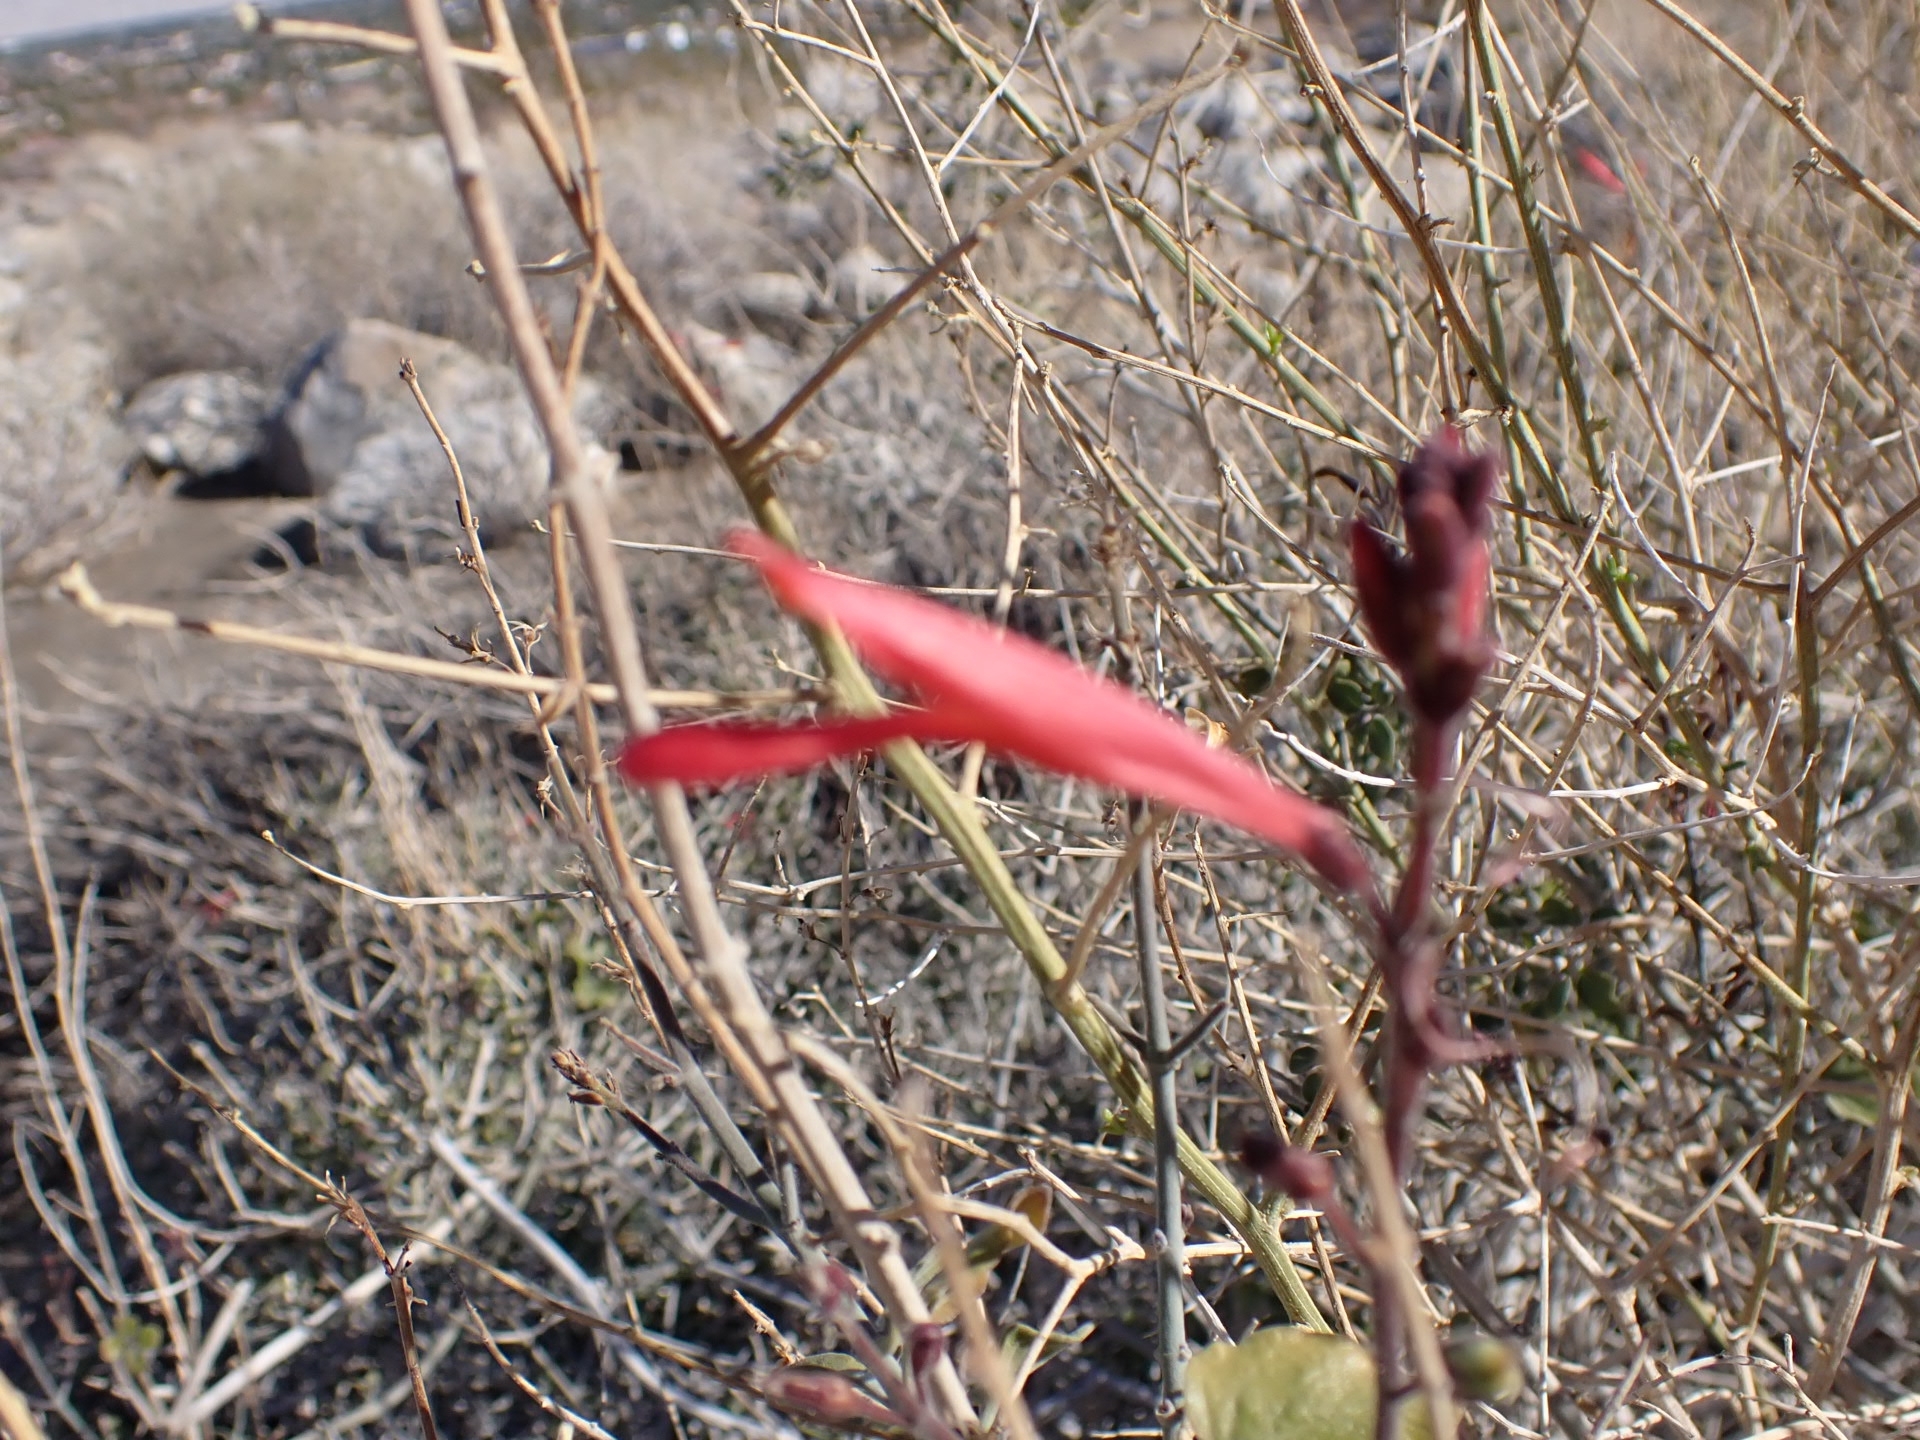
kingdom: Plantae
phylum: Tracheophyta
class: Magnoliopsida
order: Lamiales
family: Acanthaceae
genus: Justicia
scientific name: Justicia californica
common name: Chuparosa-honeysuckle
